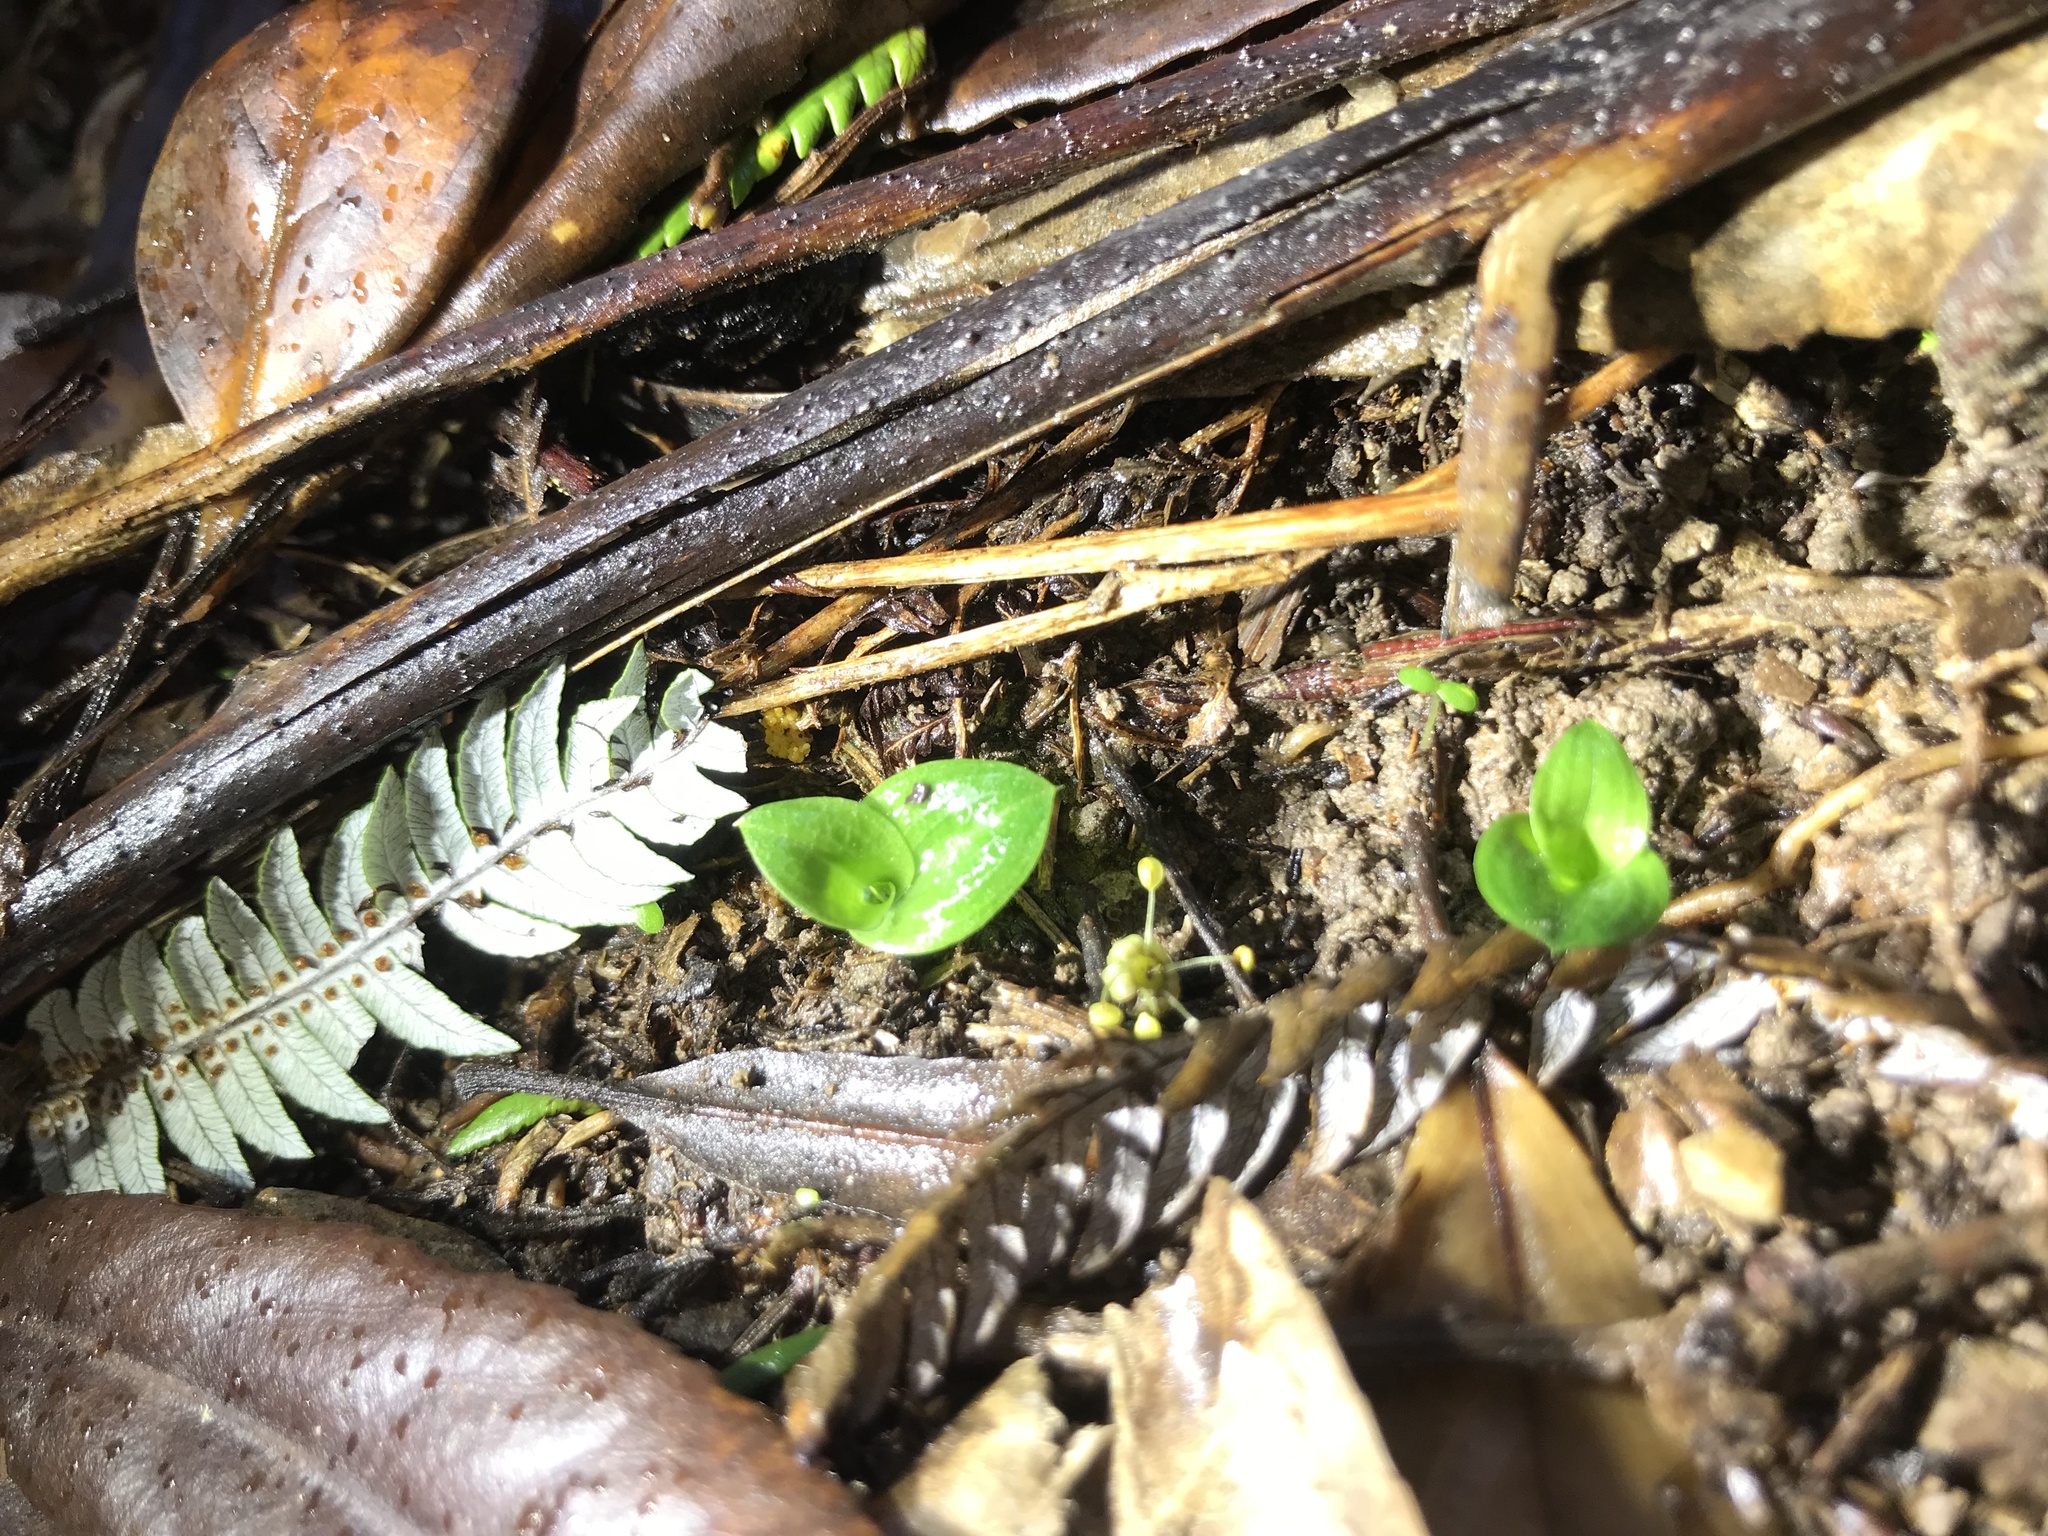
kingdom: Plantae
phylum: Tracheophyta
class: Liliopsida
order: Asparagales
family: Orchidaceae
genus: Chiloglottis
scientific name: Chiloglottis cornuta
